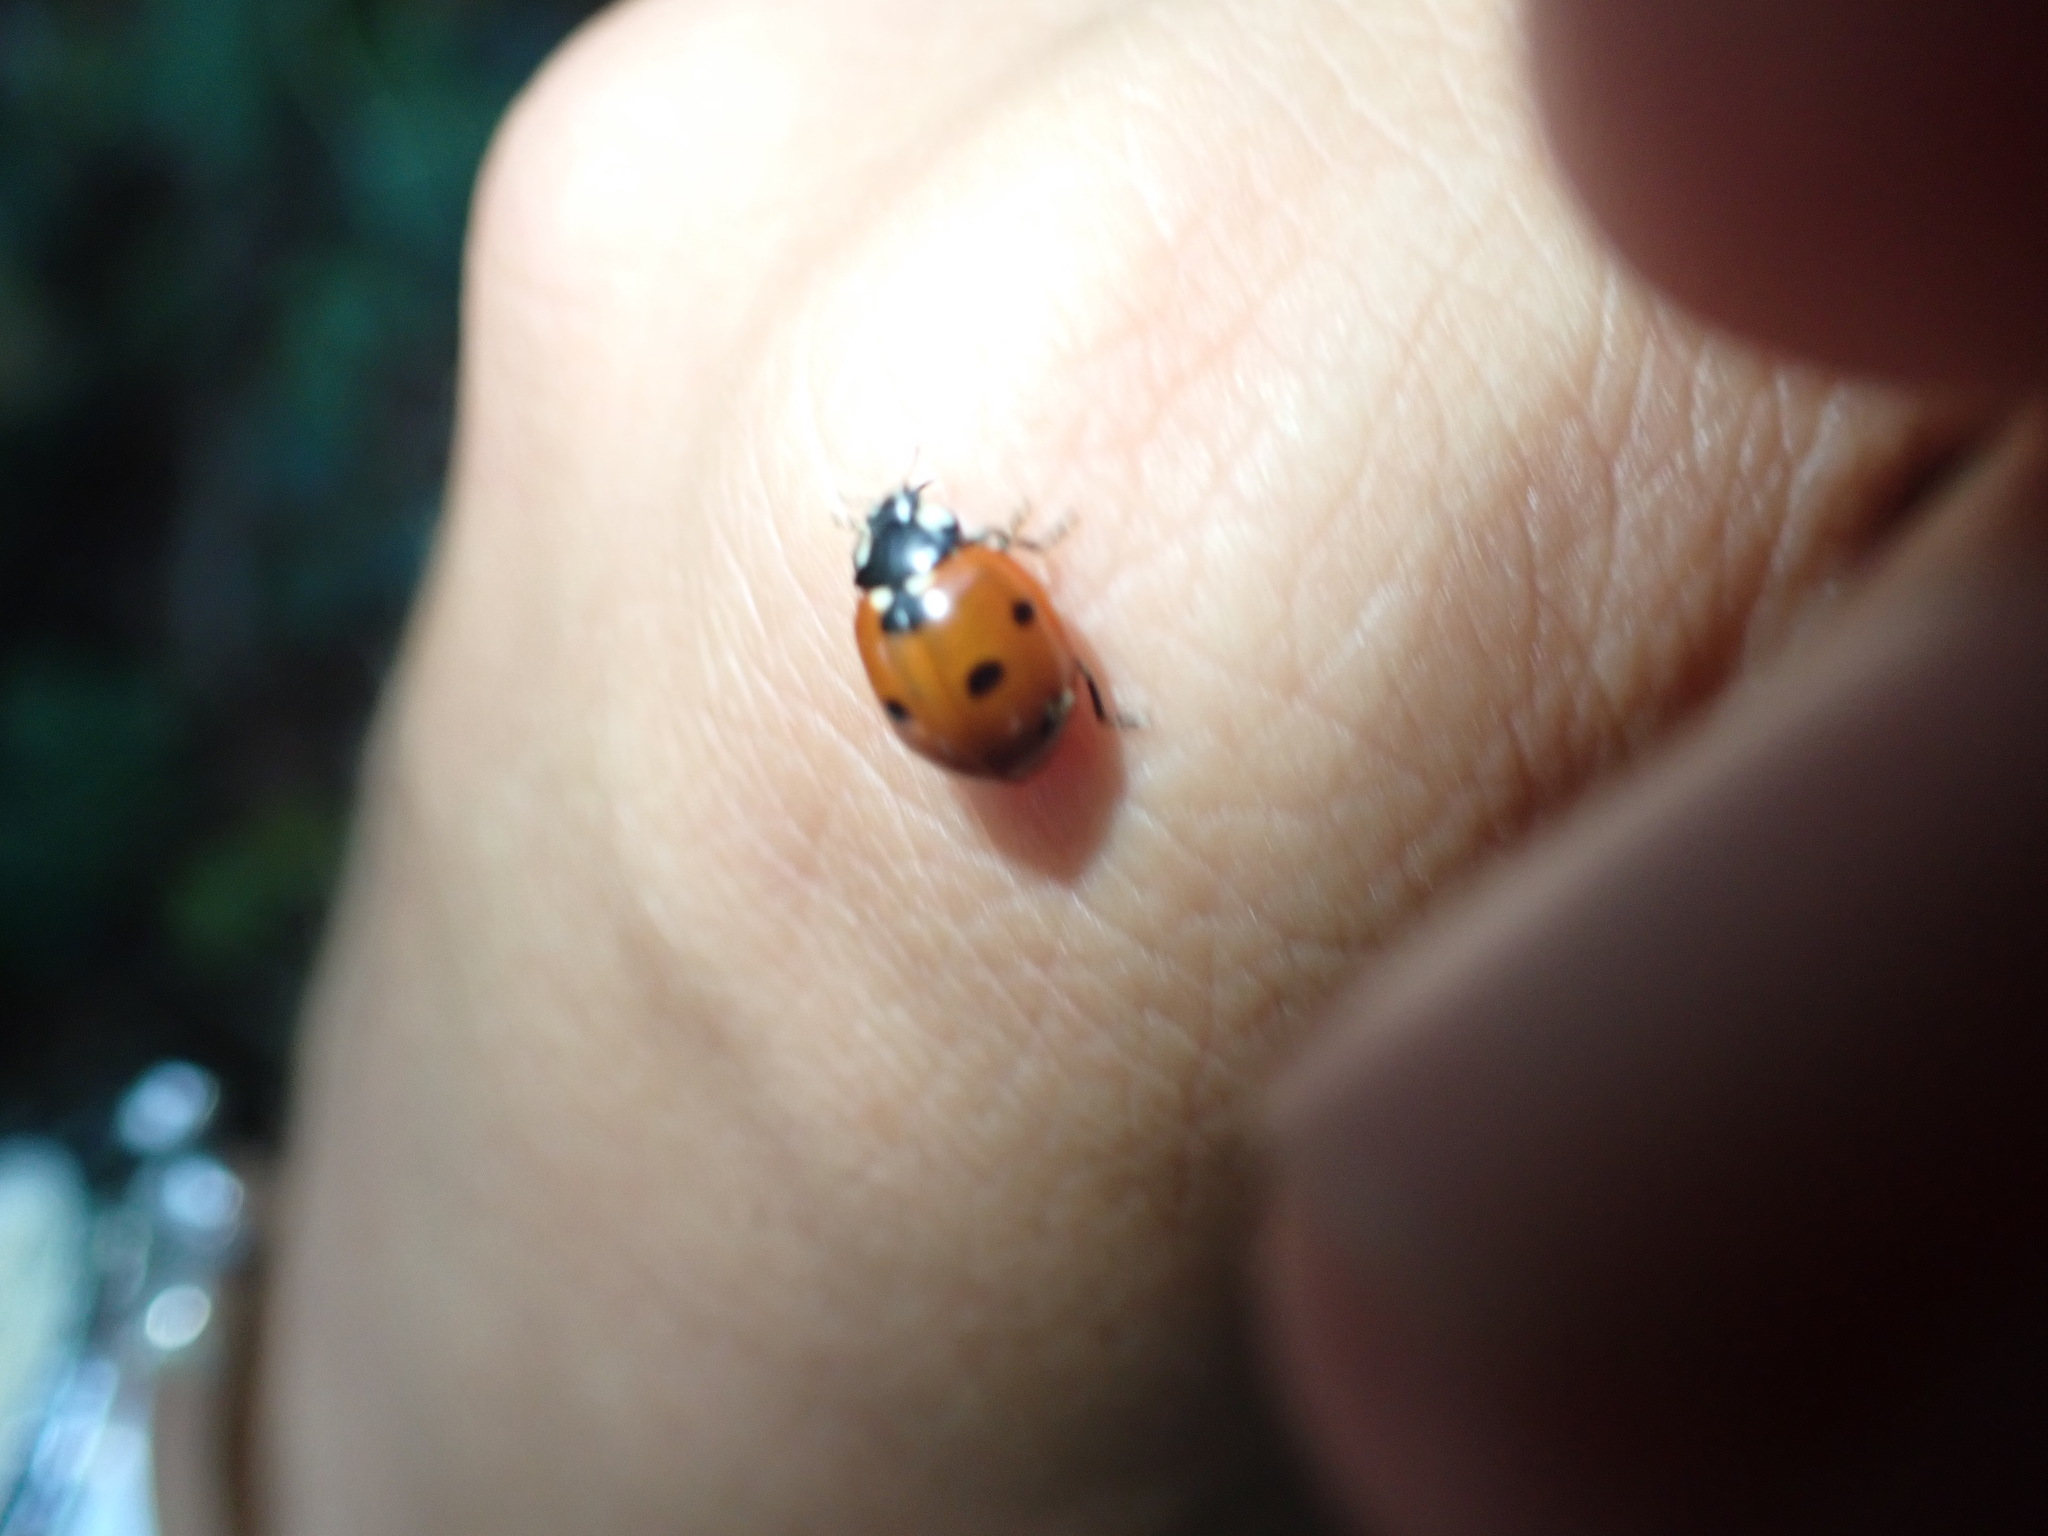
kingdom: Animalia
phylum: Arthropoda
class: Insecta
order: Coleoptera
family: Coccinellidae
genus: Coccinella
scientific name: Coccinella septempunctata
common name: Sevenspotted lady beetle
